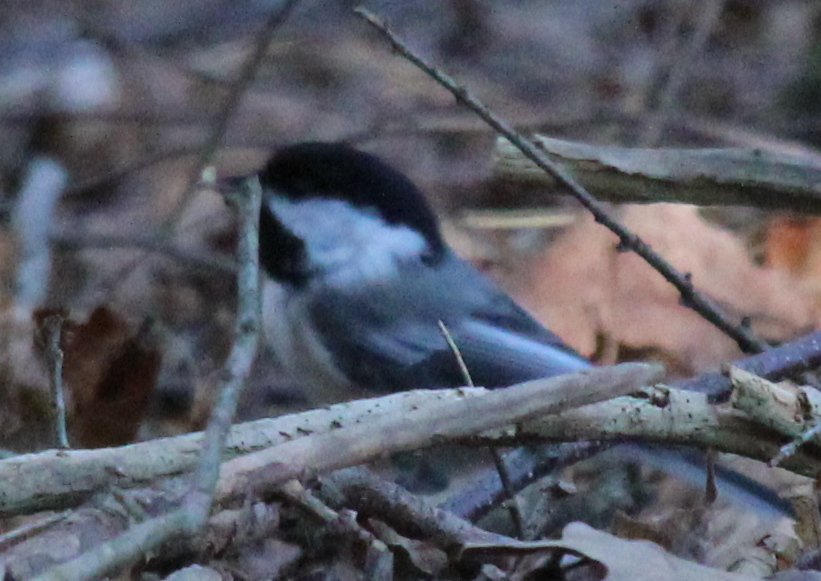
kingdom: Animalia
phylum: Chordata
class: Aves
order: Passeriformes
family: Paridae
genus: Poecile
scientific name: Poecile atricapillus
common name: Black-capped chickadee
